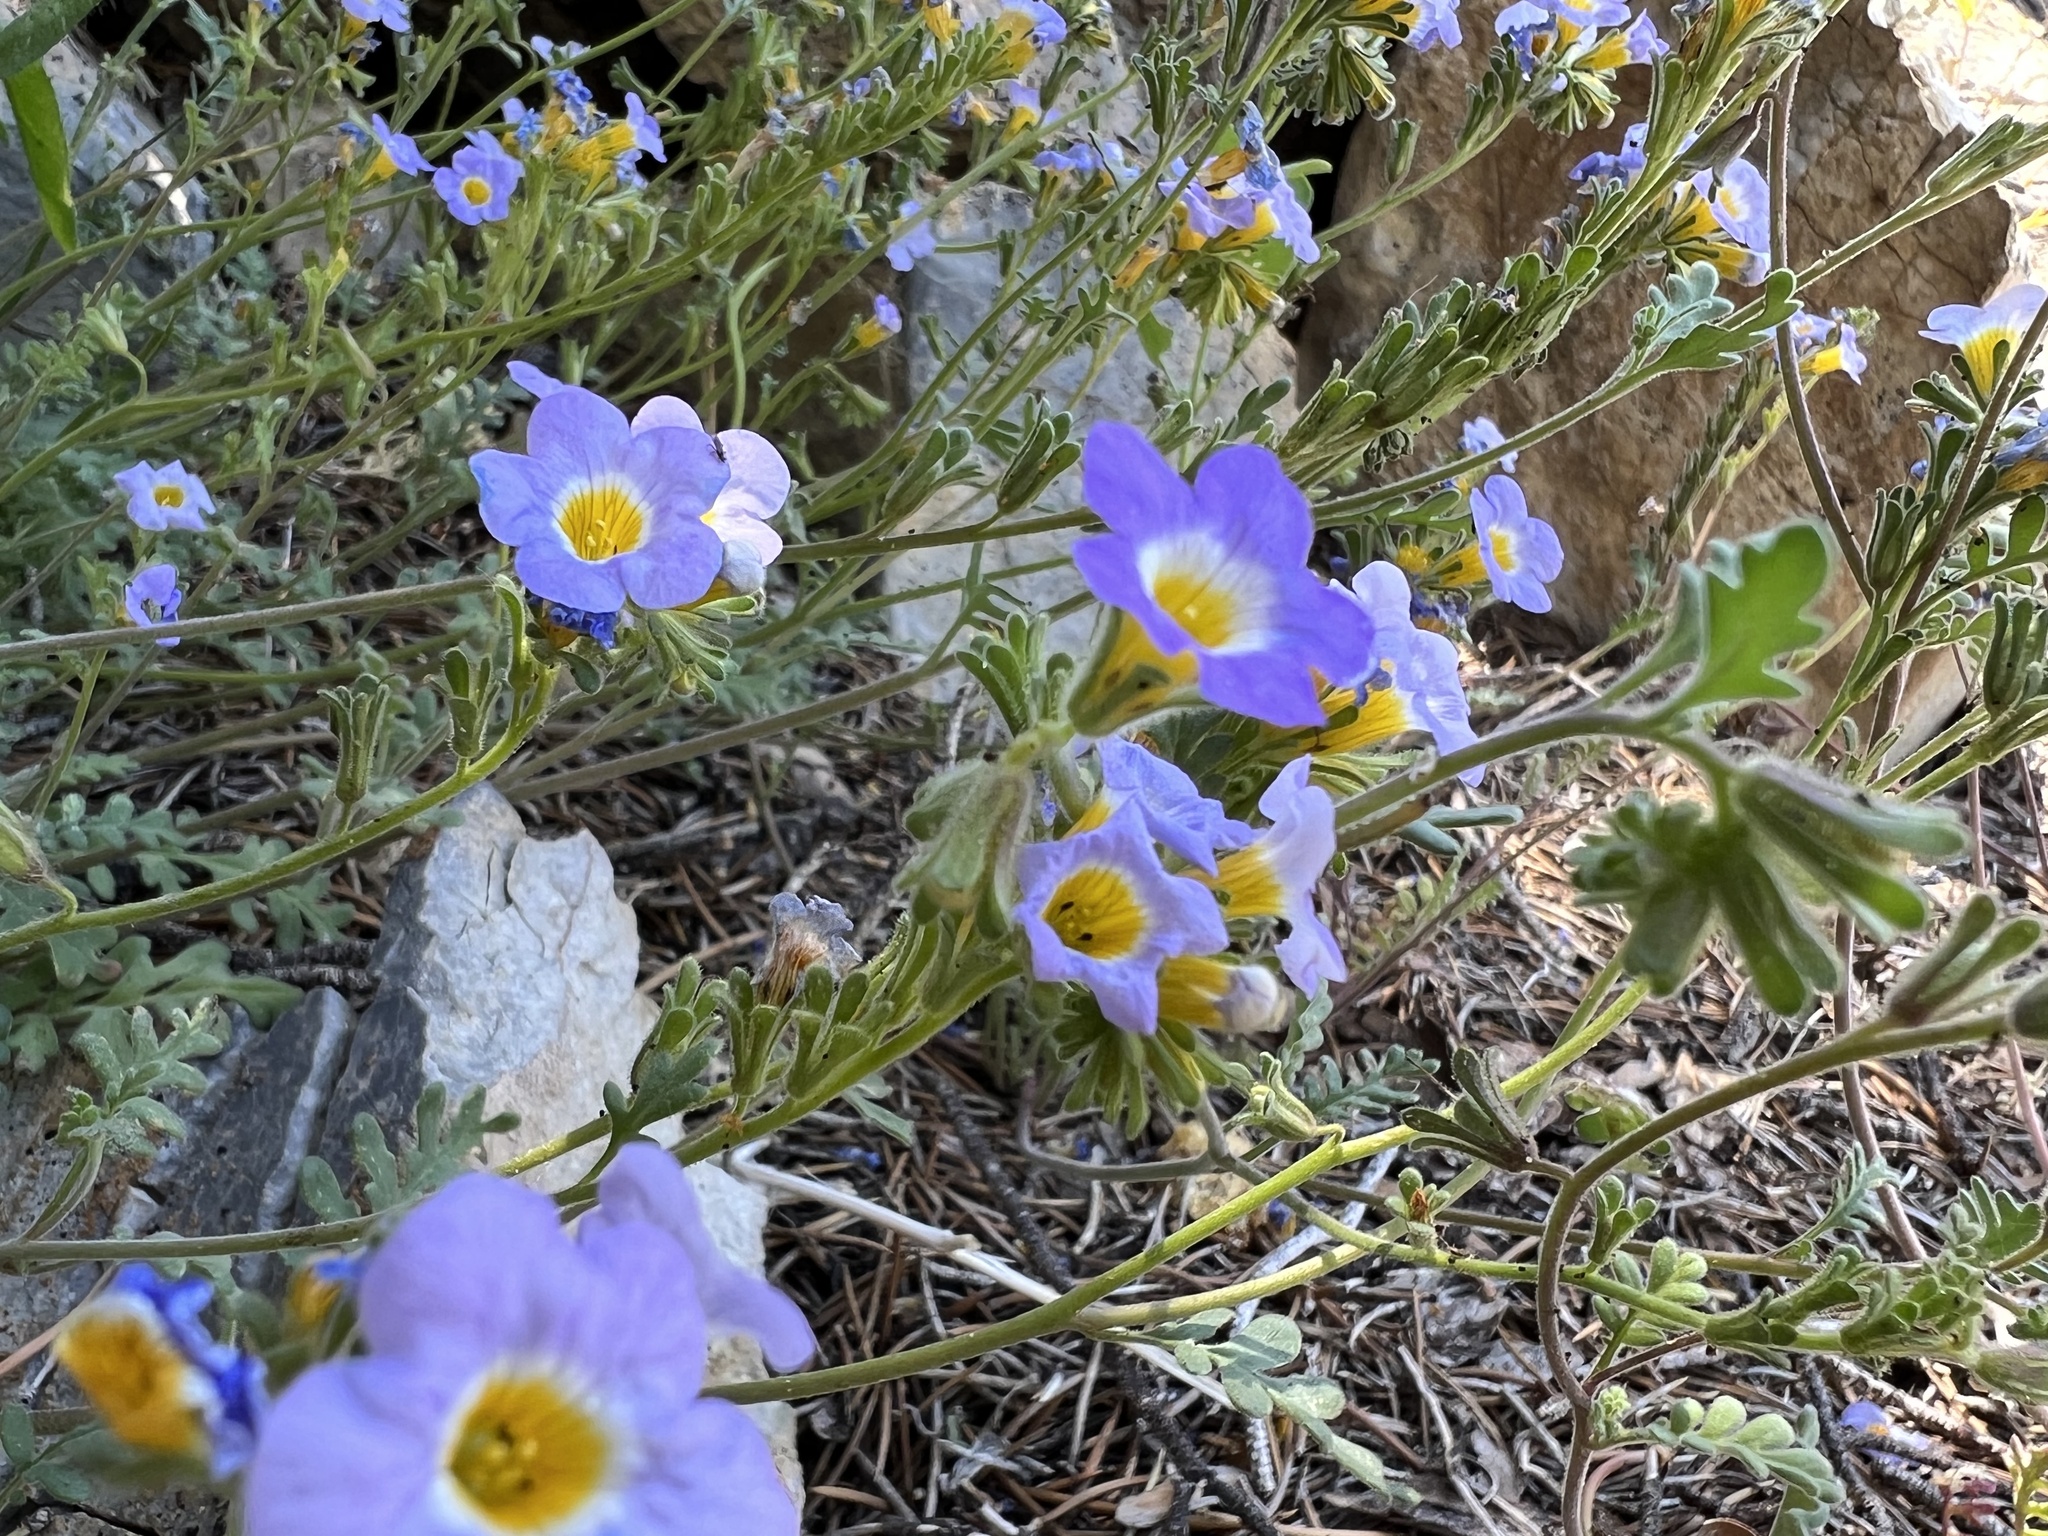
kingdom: Plantae
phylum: Tracheophyta
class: Magnoliopsida
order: Boraginales
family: Hydrophyllaceae
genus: Phacelia
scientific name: Phacelia fremontii
